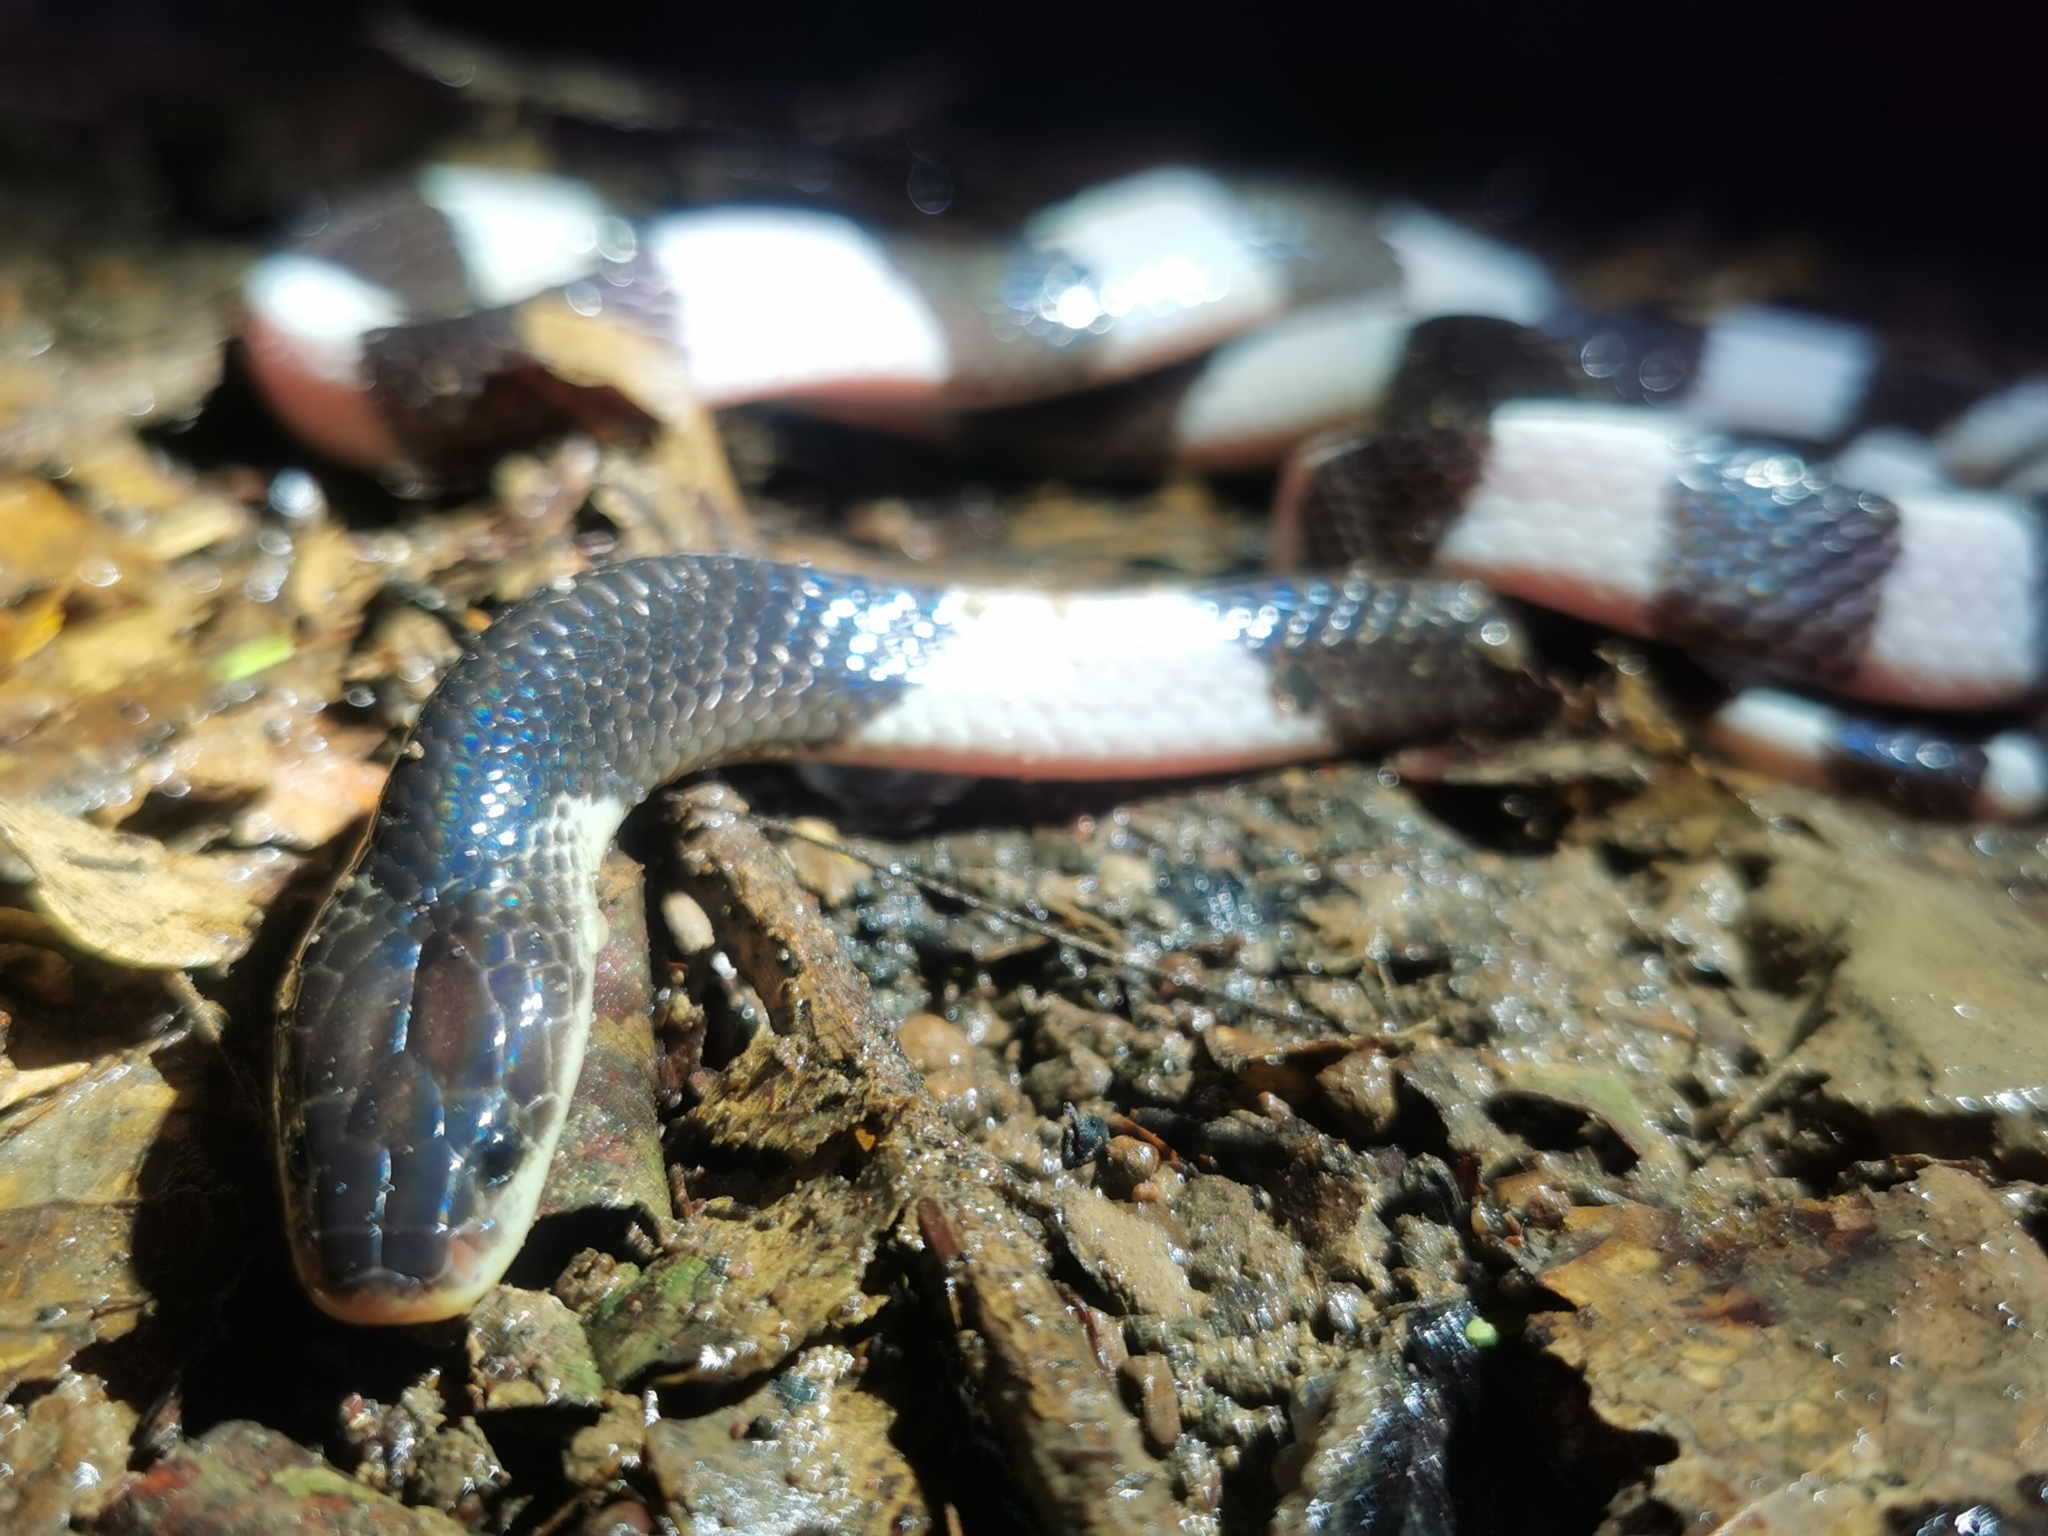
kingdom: Animalia
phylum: Chordata
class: Squamata
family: Elapidae
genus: Bungarus
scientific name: Bungarus candidus
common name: Blue krait/malayan krait
